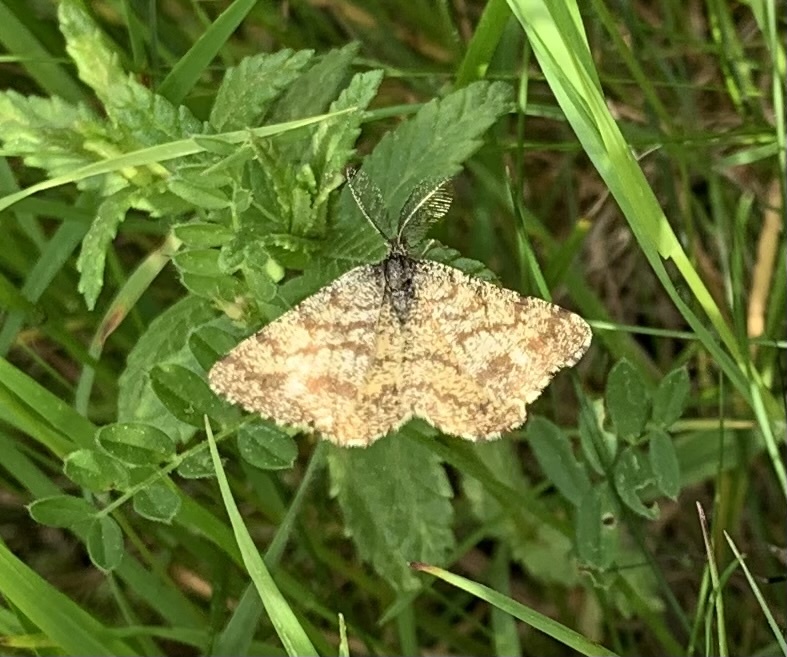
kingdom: Animalia
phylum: Arthropoda
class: Insecta
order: Lepidoptera
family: Geometridae
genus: Ematurga
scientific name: Ematurga atomaria
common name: Common heath
